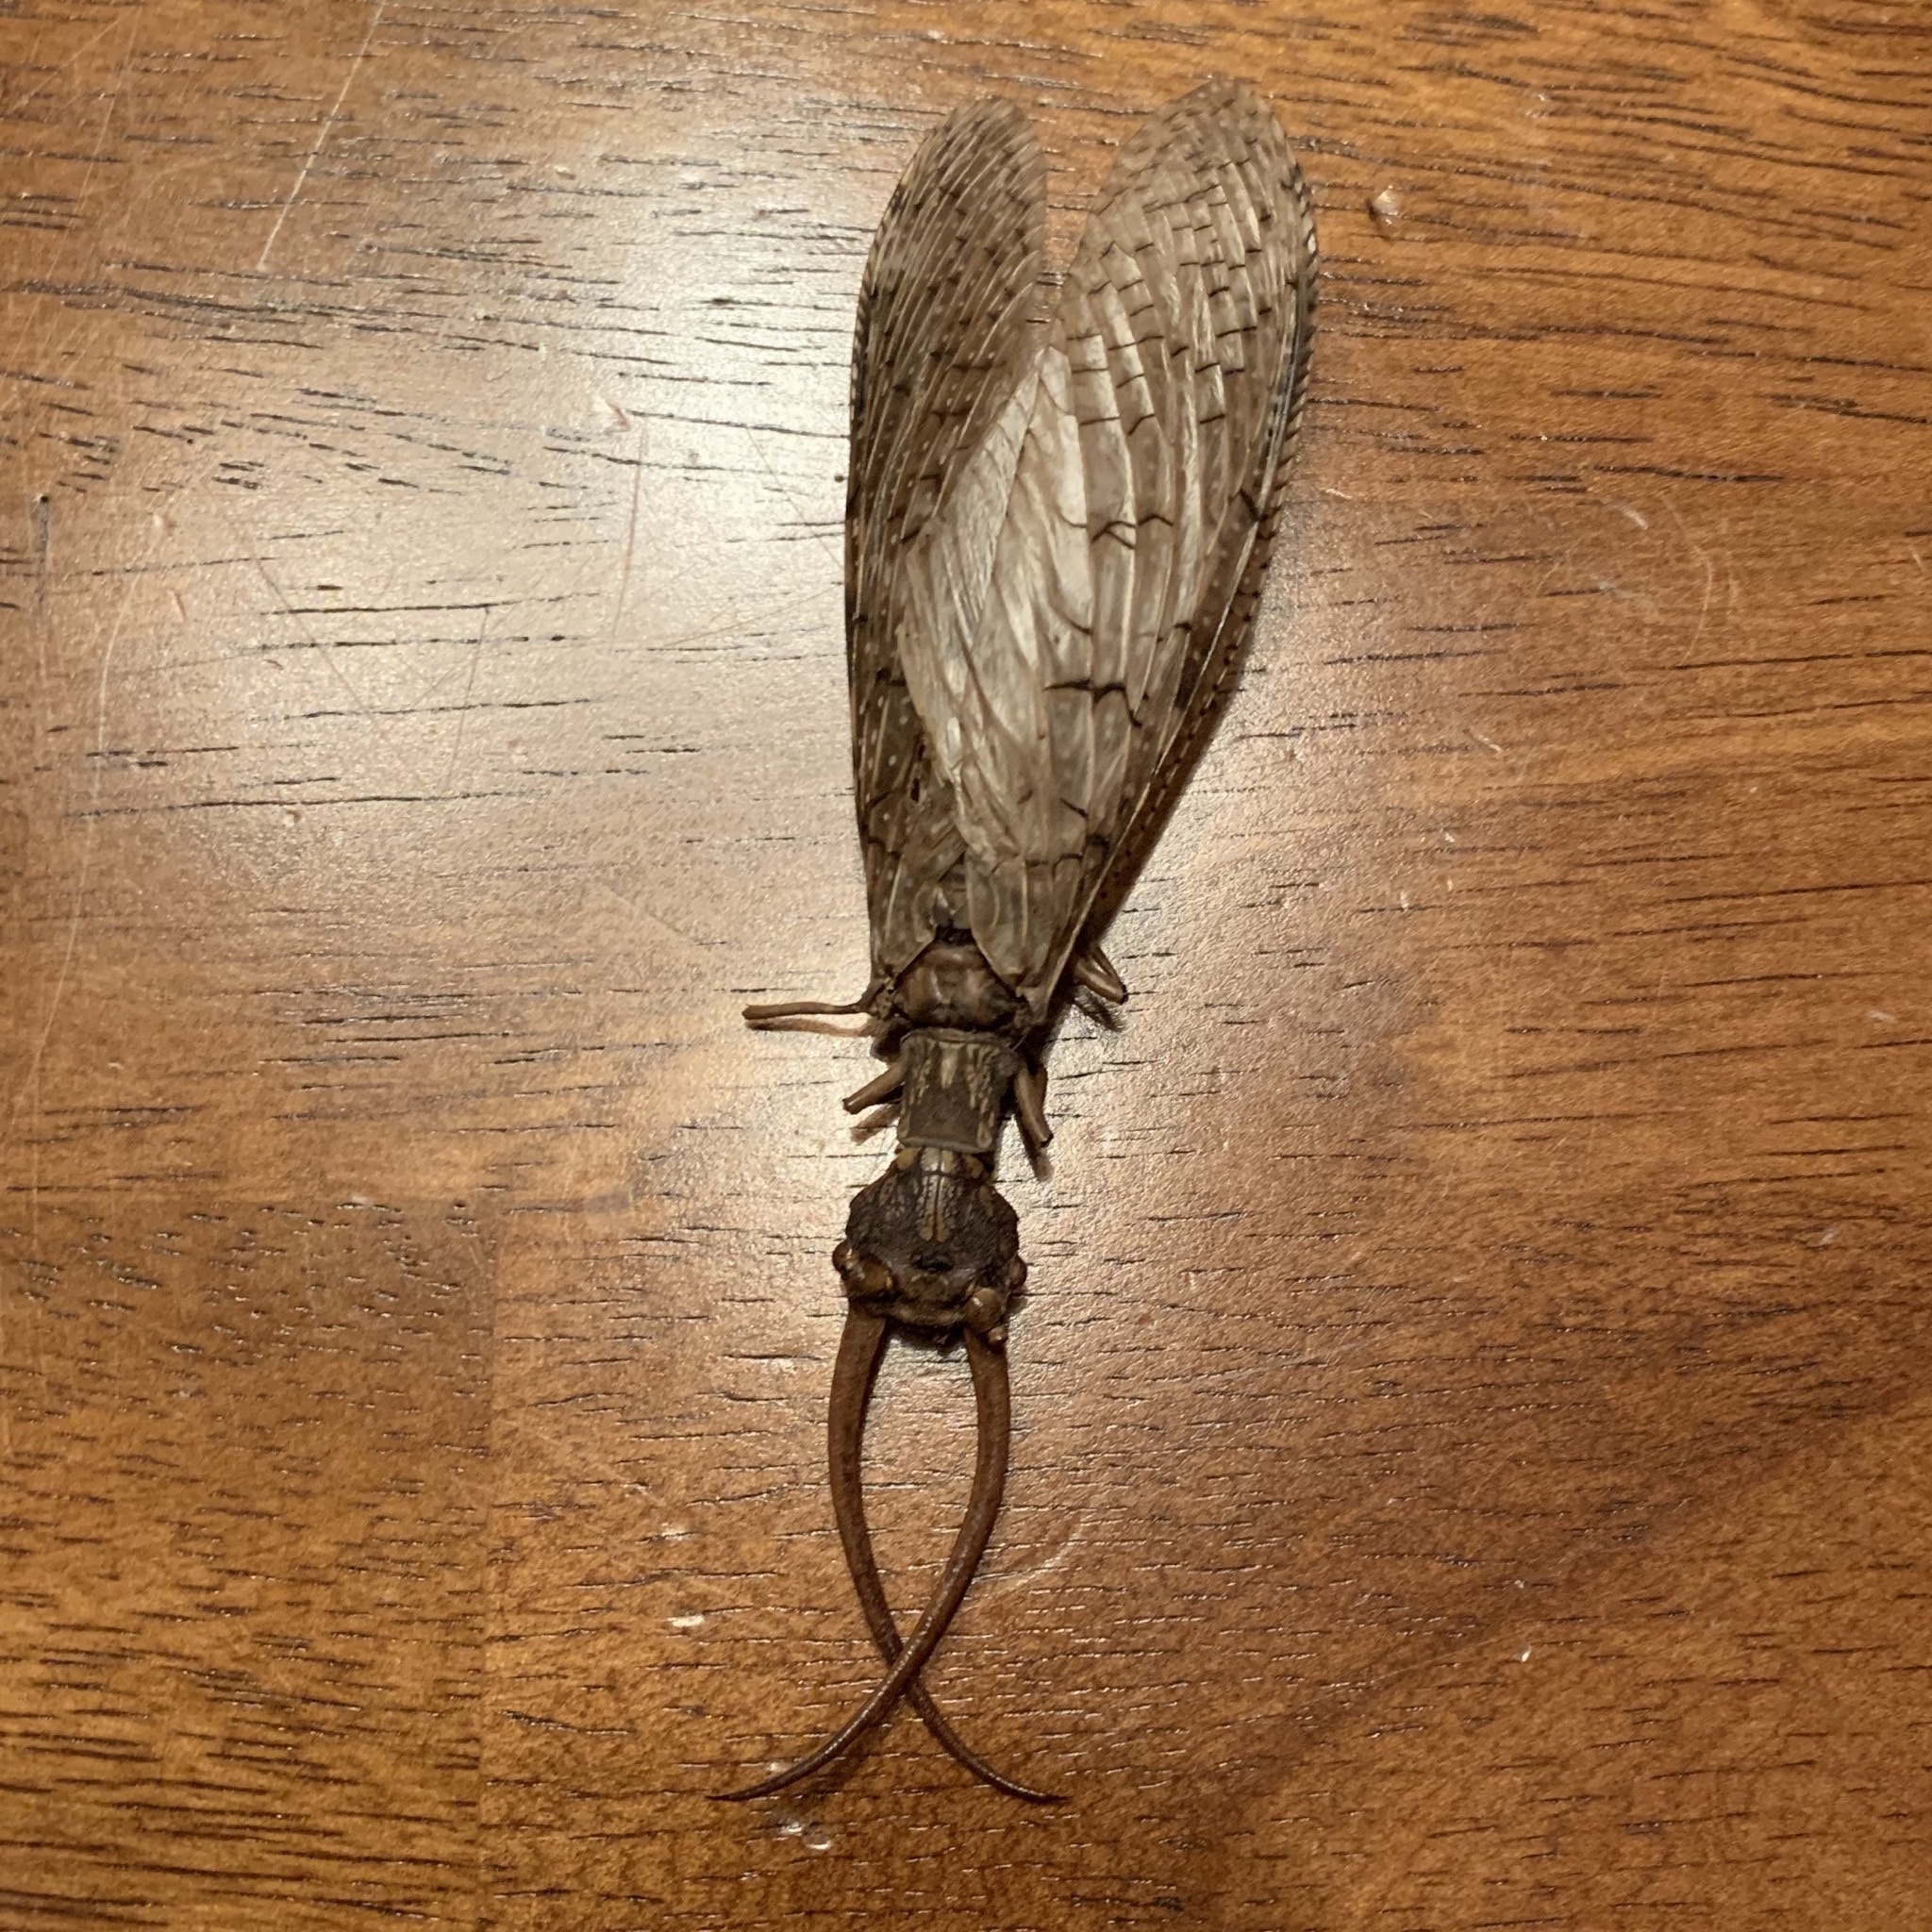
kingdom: Animalia
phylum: Arthropoda
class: Insecta
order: Megaloptera
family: Corydalidae
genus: Corydalus
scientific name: Corydalus cornutus
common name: Dobsonfly
